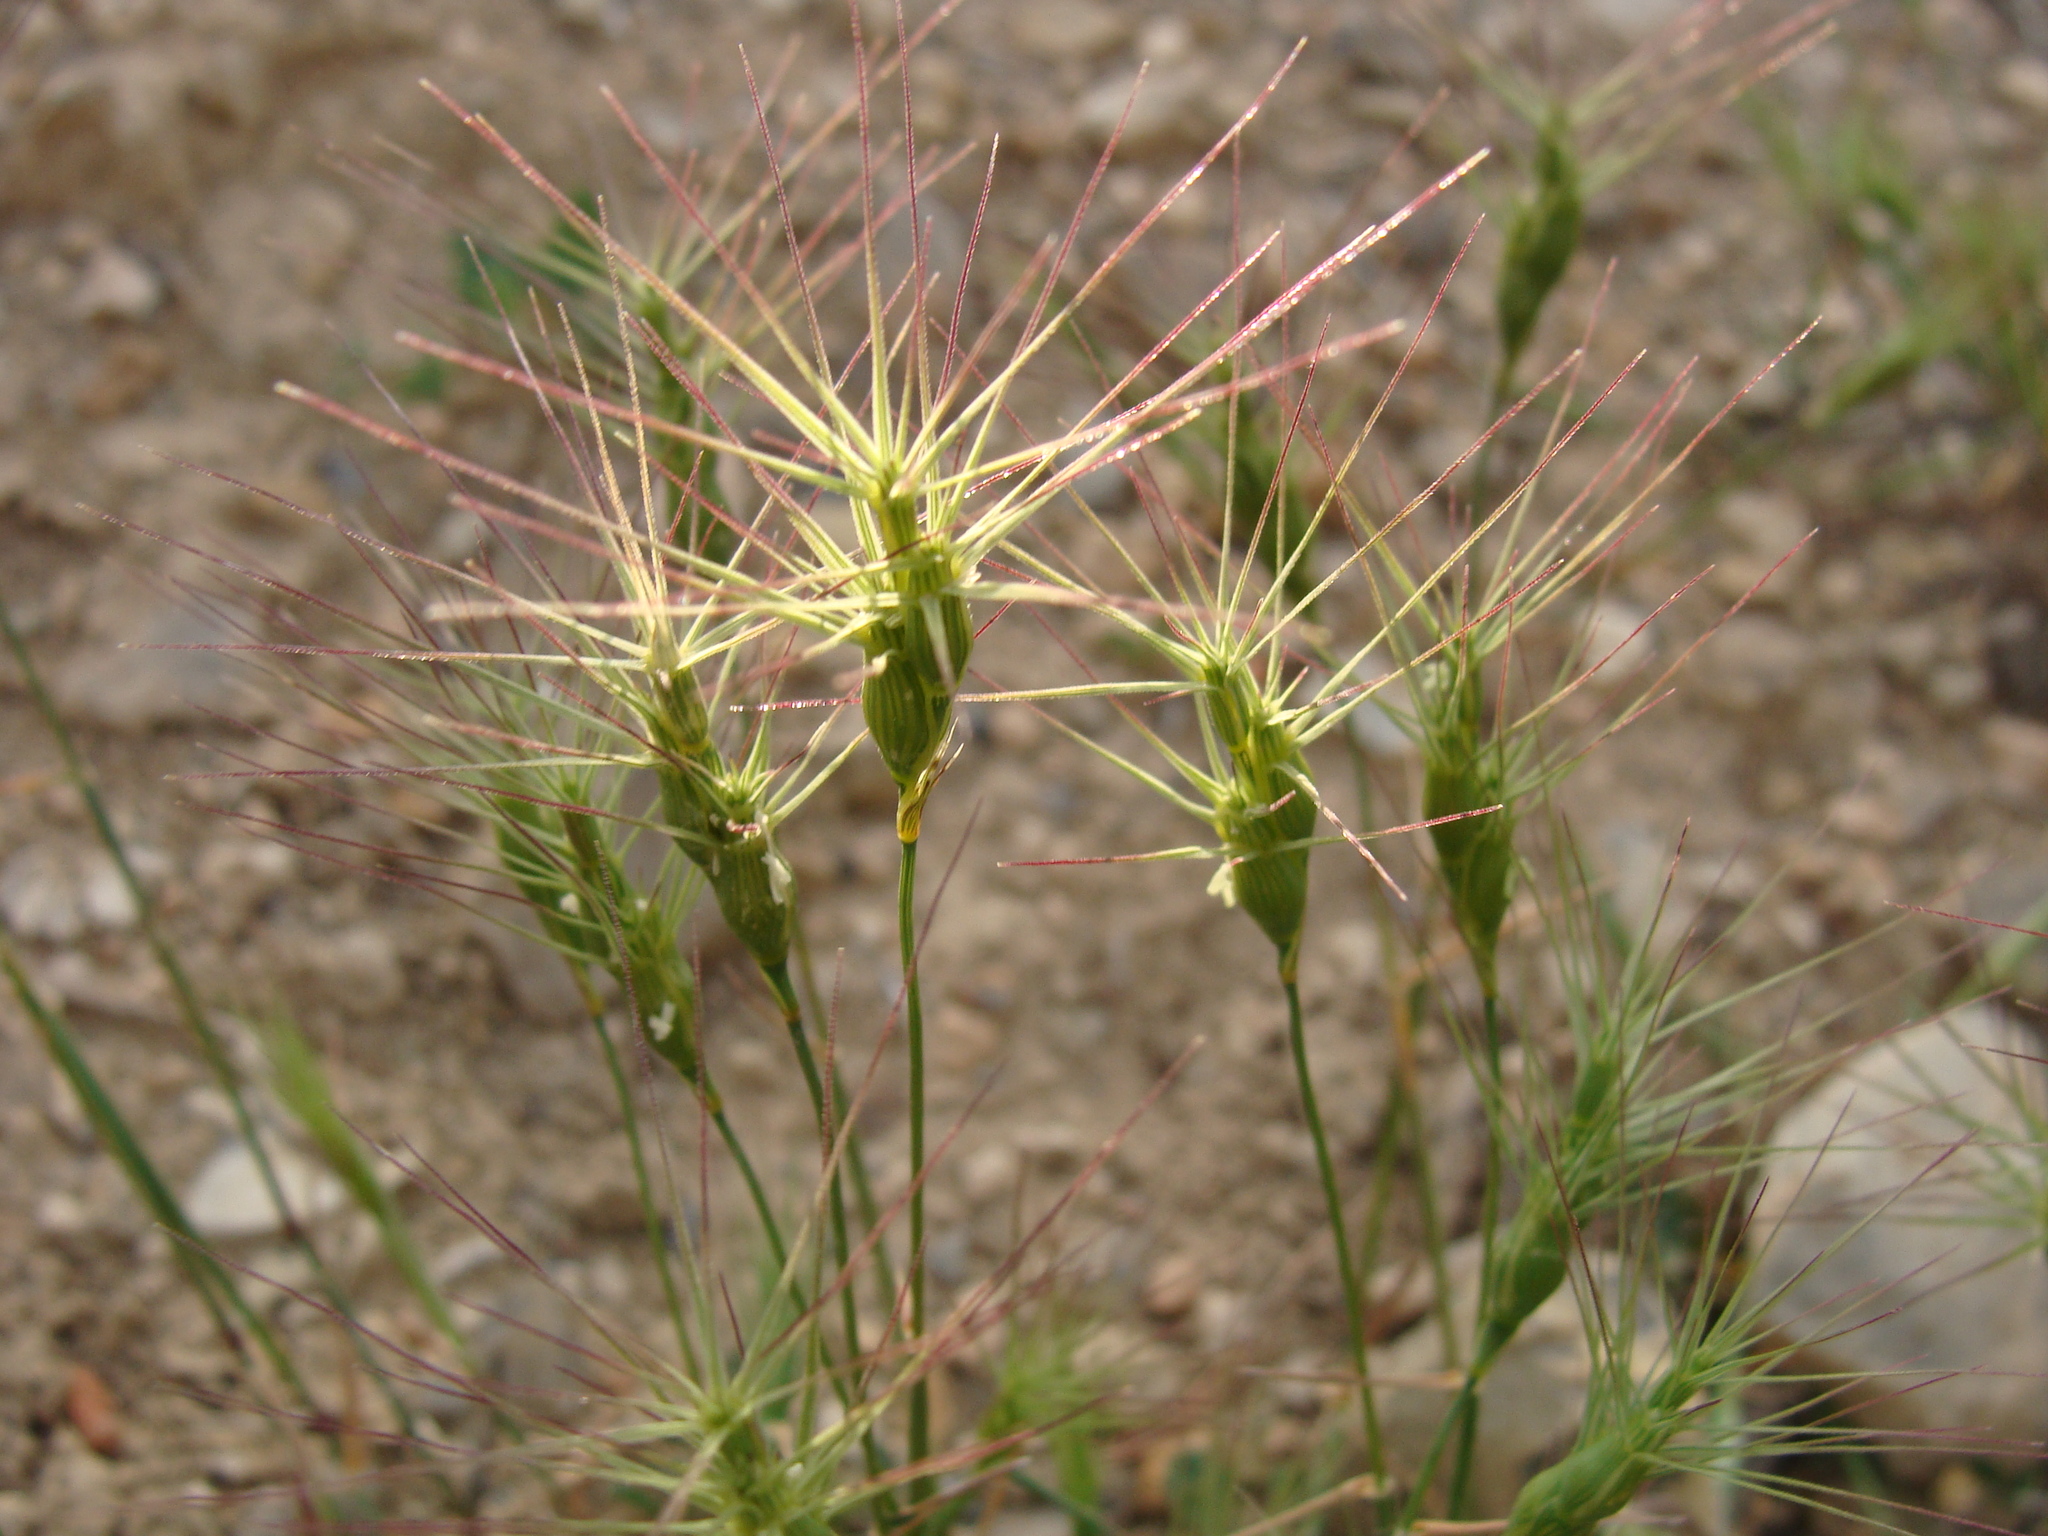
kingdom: Plantae
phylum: Tracheophyta
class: Liliopsida
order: Poales
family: Poaceae
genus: Aegilops
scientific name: Aegilops biuncialis
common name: Mediterranean aegilops
